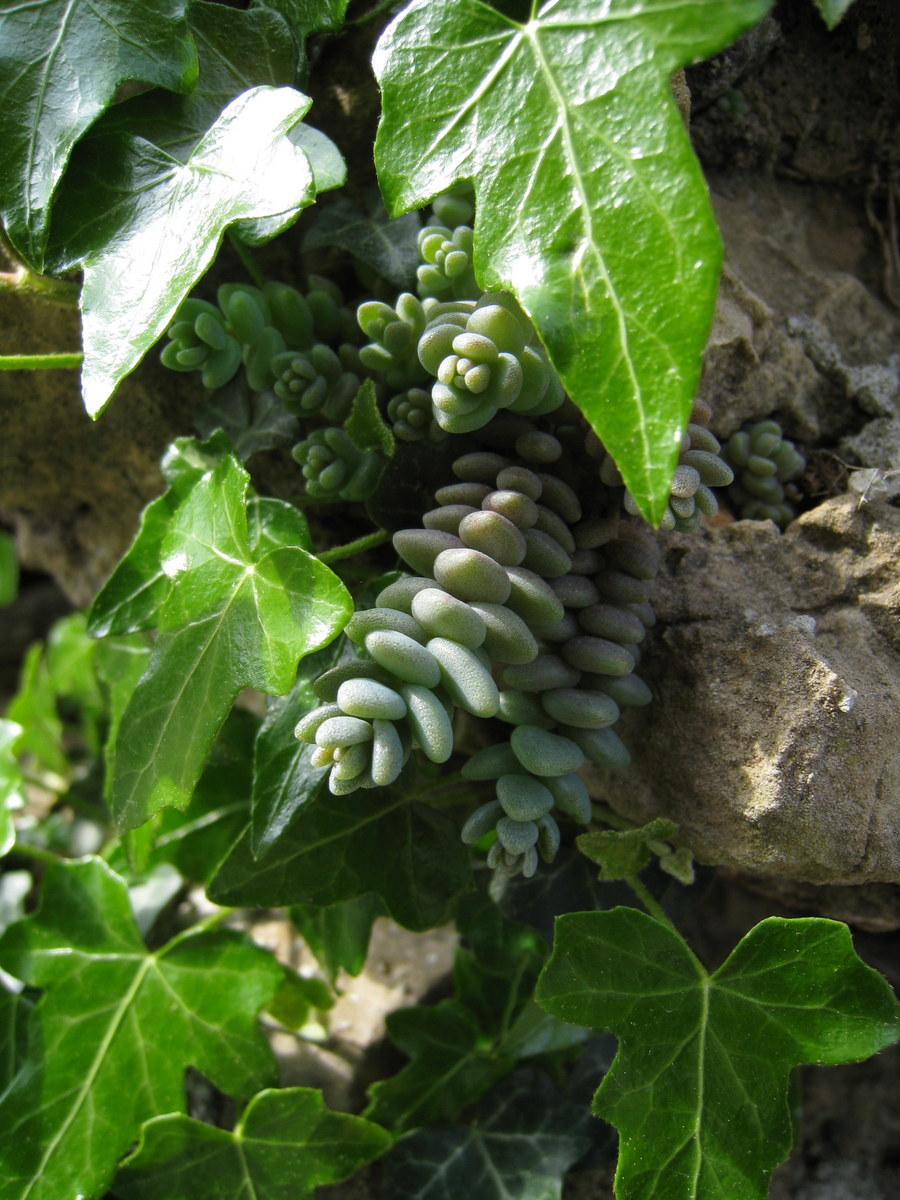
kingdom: Plantae
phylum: Tracheophyta
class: Magnoliopsida
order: Saxifragales
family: Crassulaceae
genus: Sedum
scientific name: Sedum dasyphyllum
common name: Thick-leaf stonecrop
